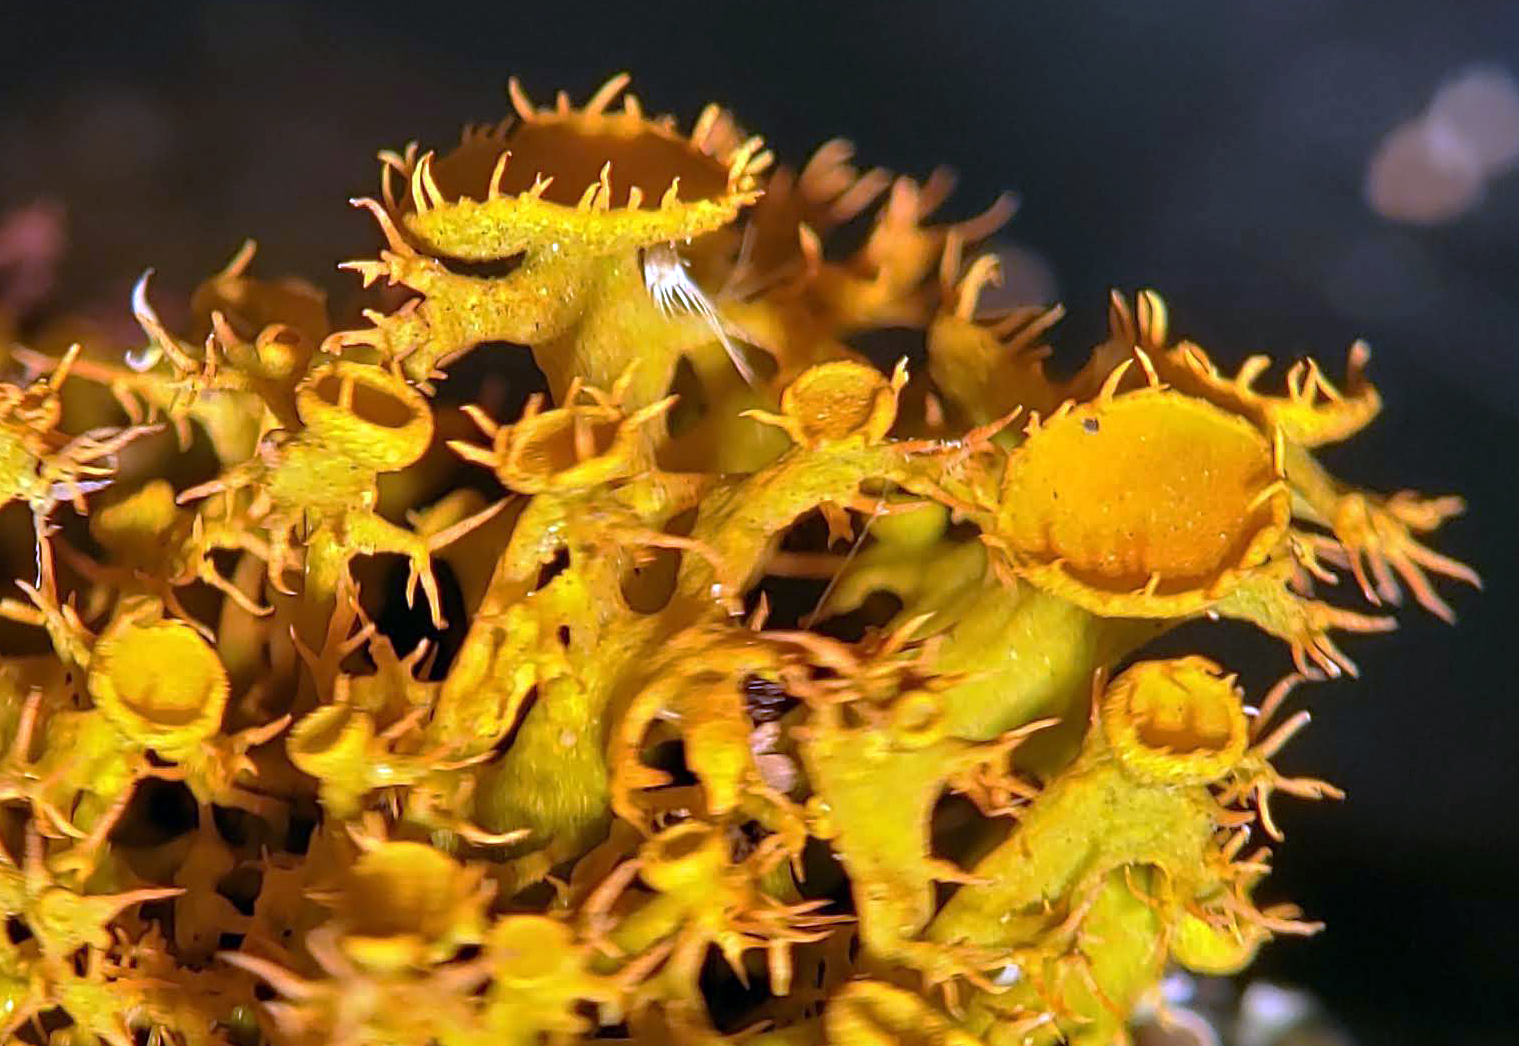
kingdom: Fungi
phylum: Ascomycota
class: Lecanoromycetes
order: Teloschistales
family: Teloschistaceae
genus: Niorma
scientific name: Niorma chrysophthalma
